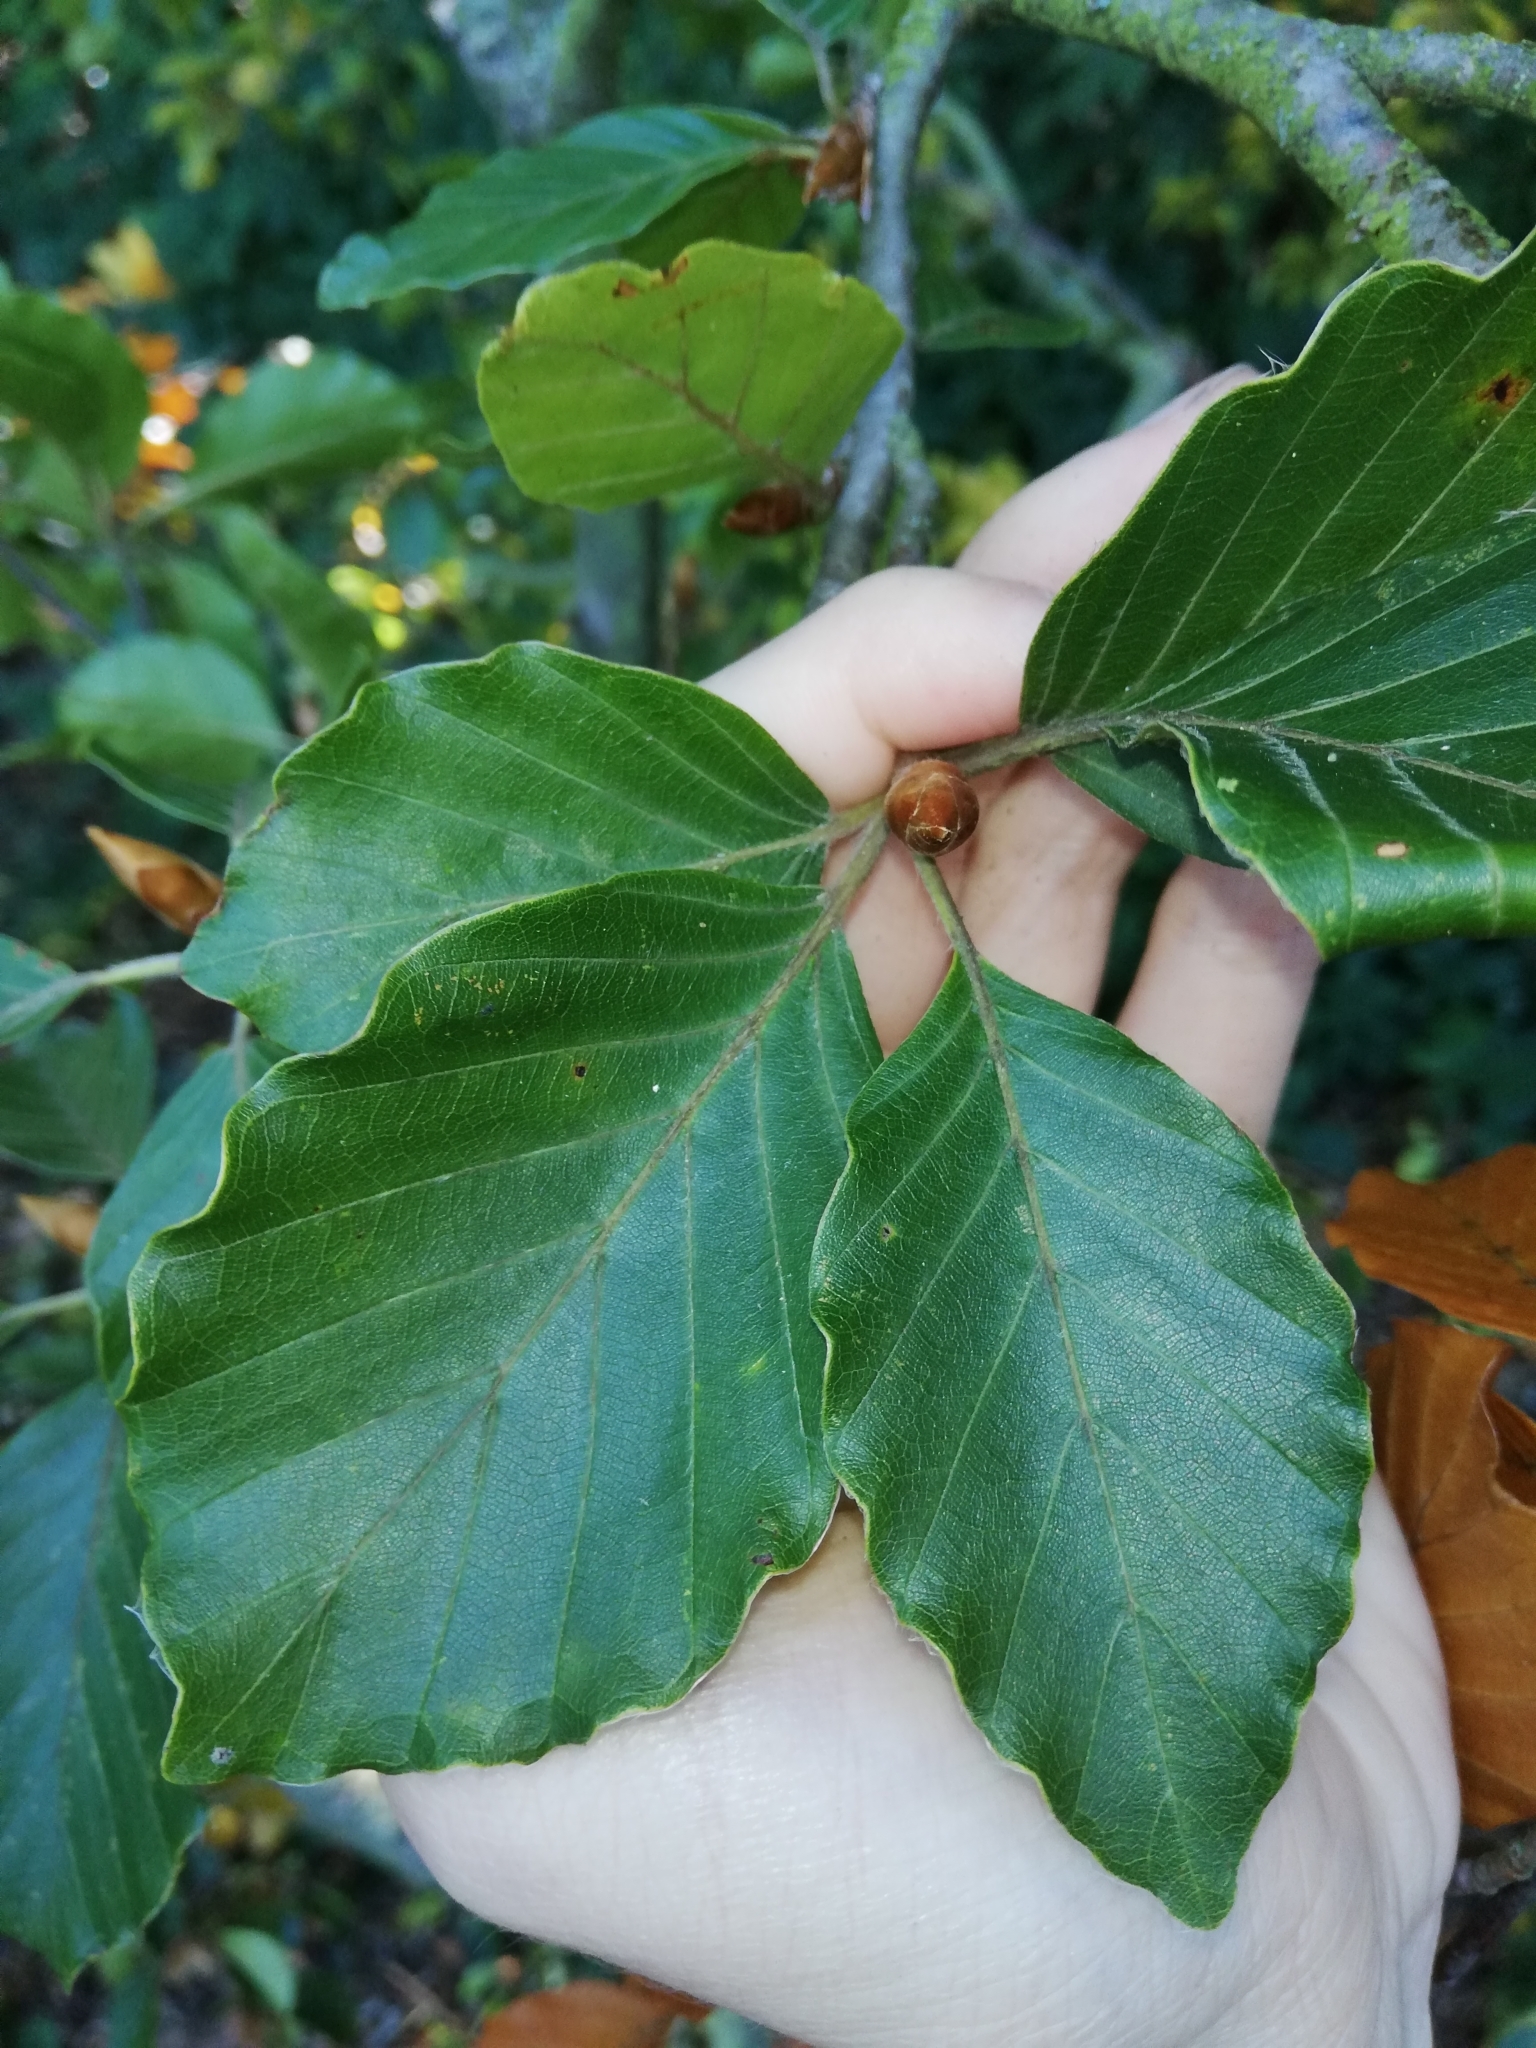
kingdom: Fungi
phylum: Ascomycota
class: Lecanoromycetes
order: Caliciales
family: Physciaceae
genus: Physcia
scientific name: Physcia tenella
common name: Fringed rosette lichen
